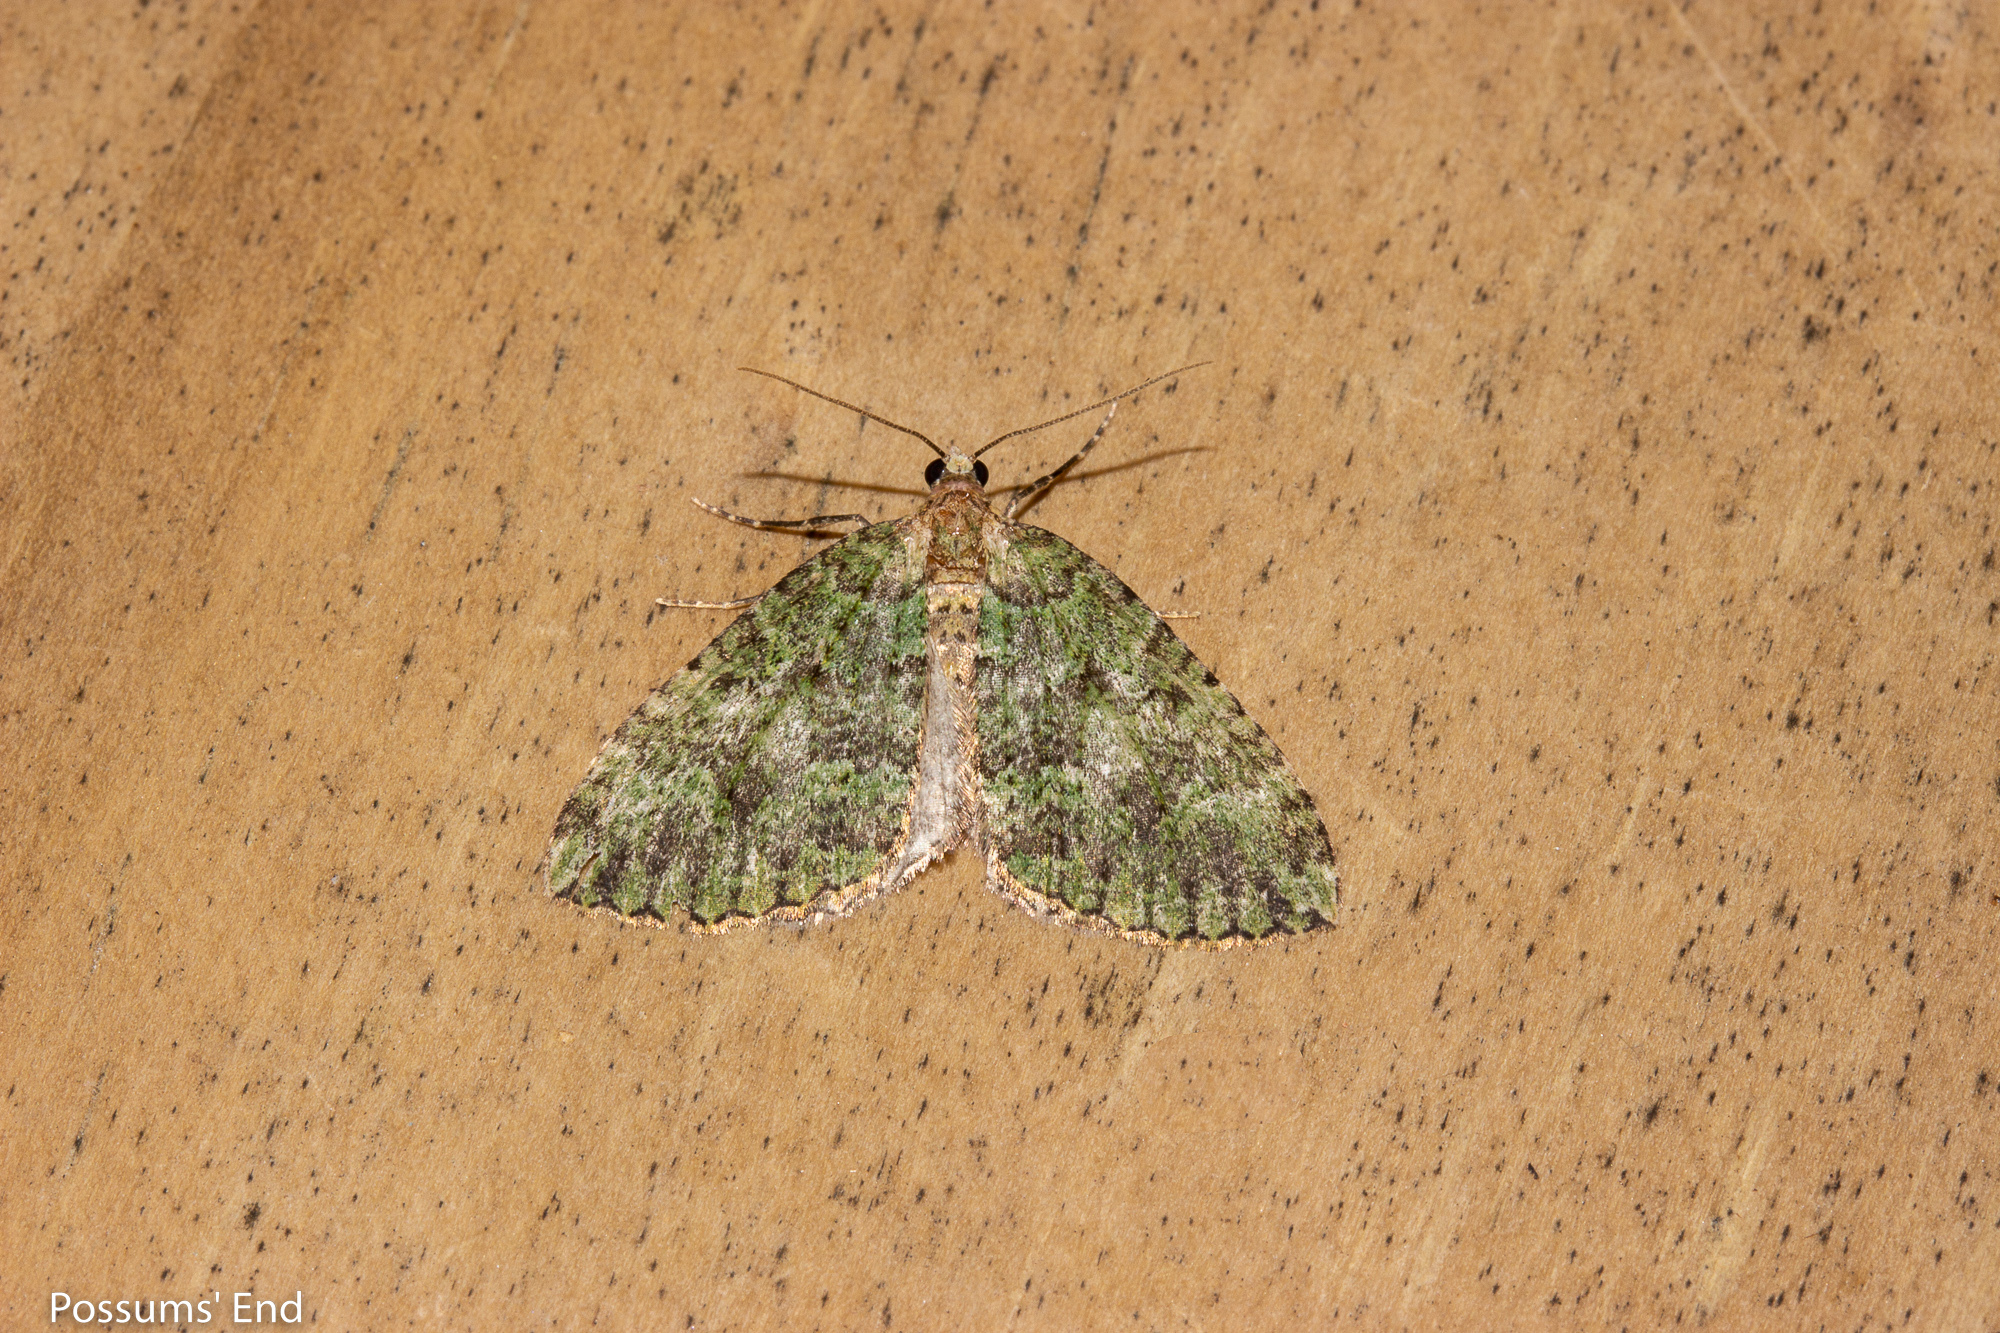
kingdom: Animalia
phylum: Arthropoda
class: Insecta
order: Lepidoptera
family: Geometridae
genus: Austrocidaria
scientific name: Austrocidaria callichlora
